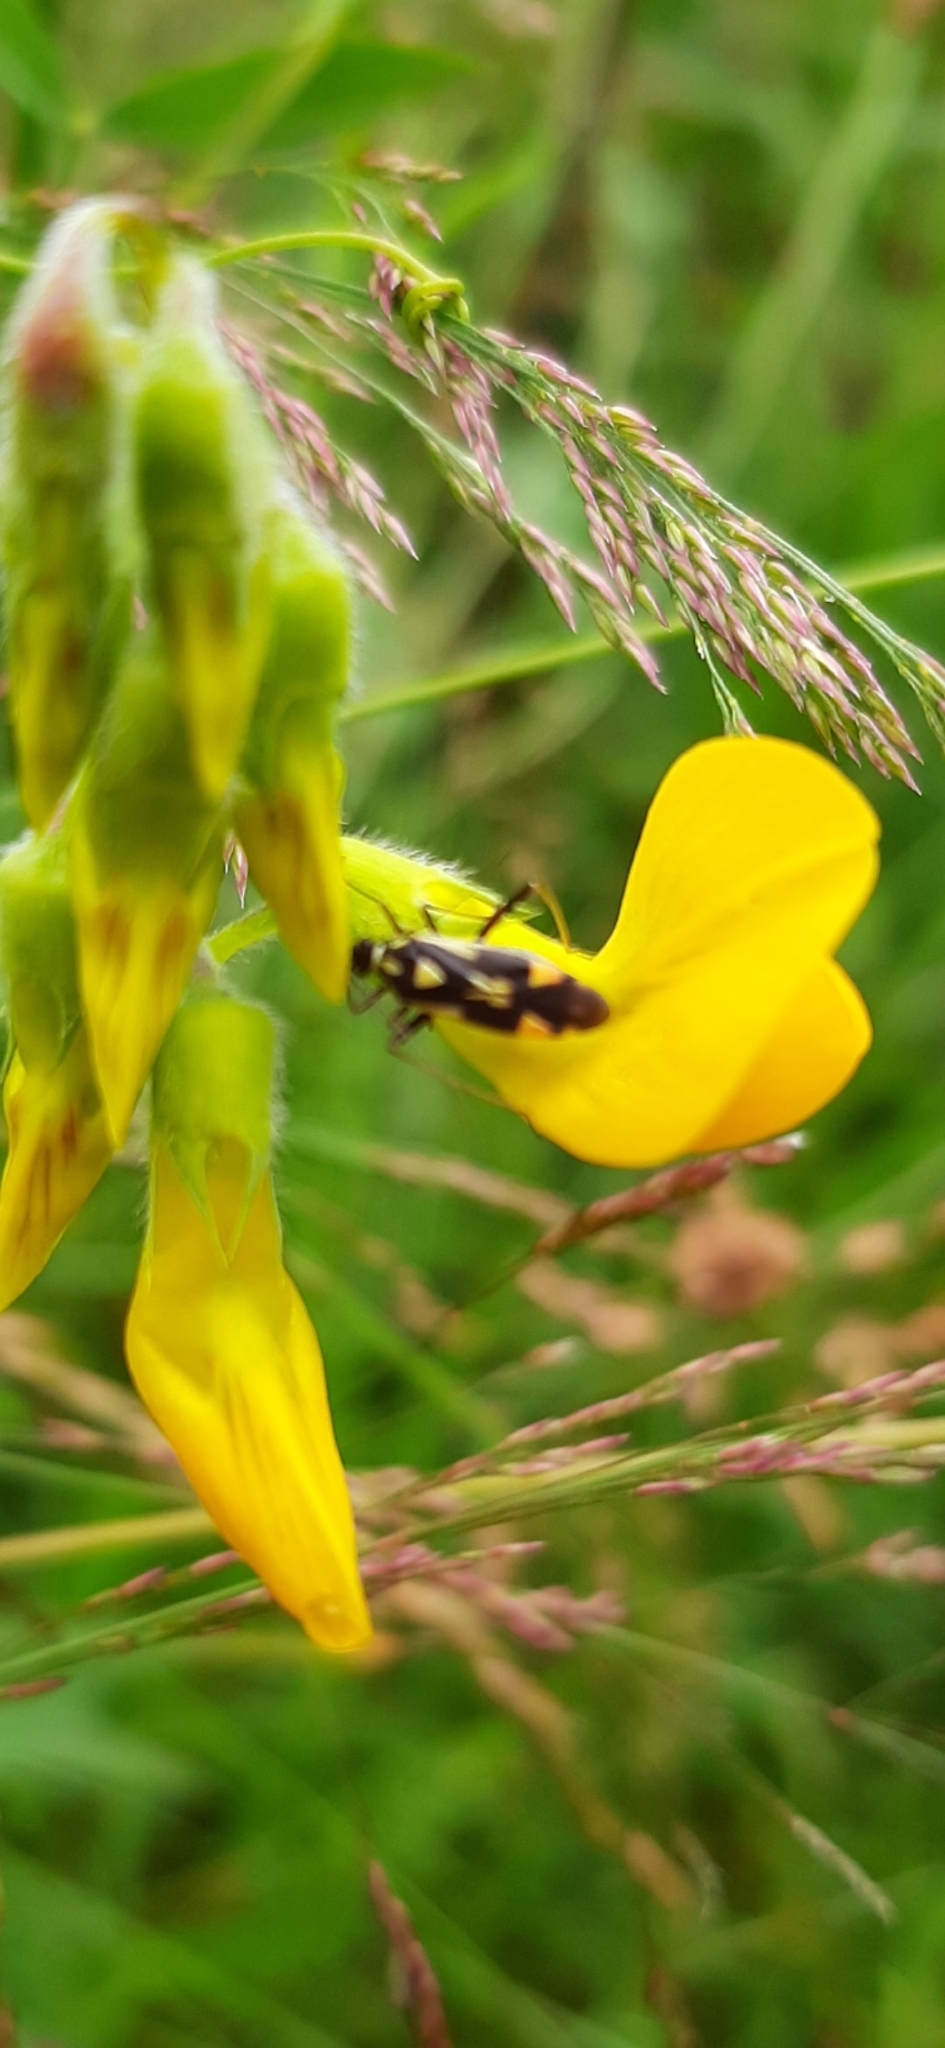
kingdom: Animalia
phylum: Arthropoda
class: Insecta
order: Hemiptera
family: Miridae
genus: Grypocoris
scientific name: Grypocoris stysi
